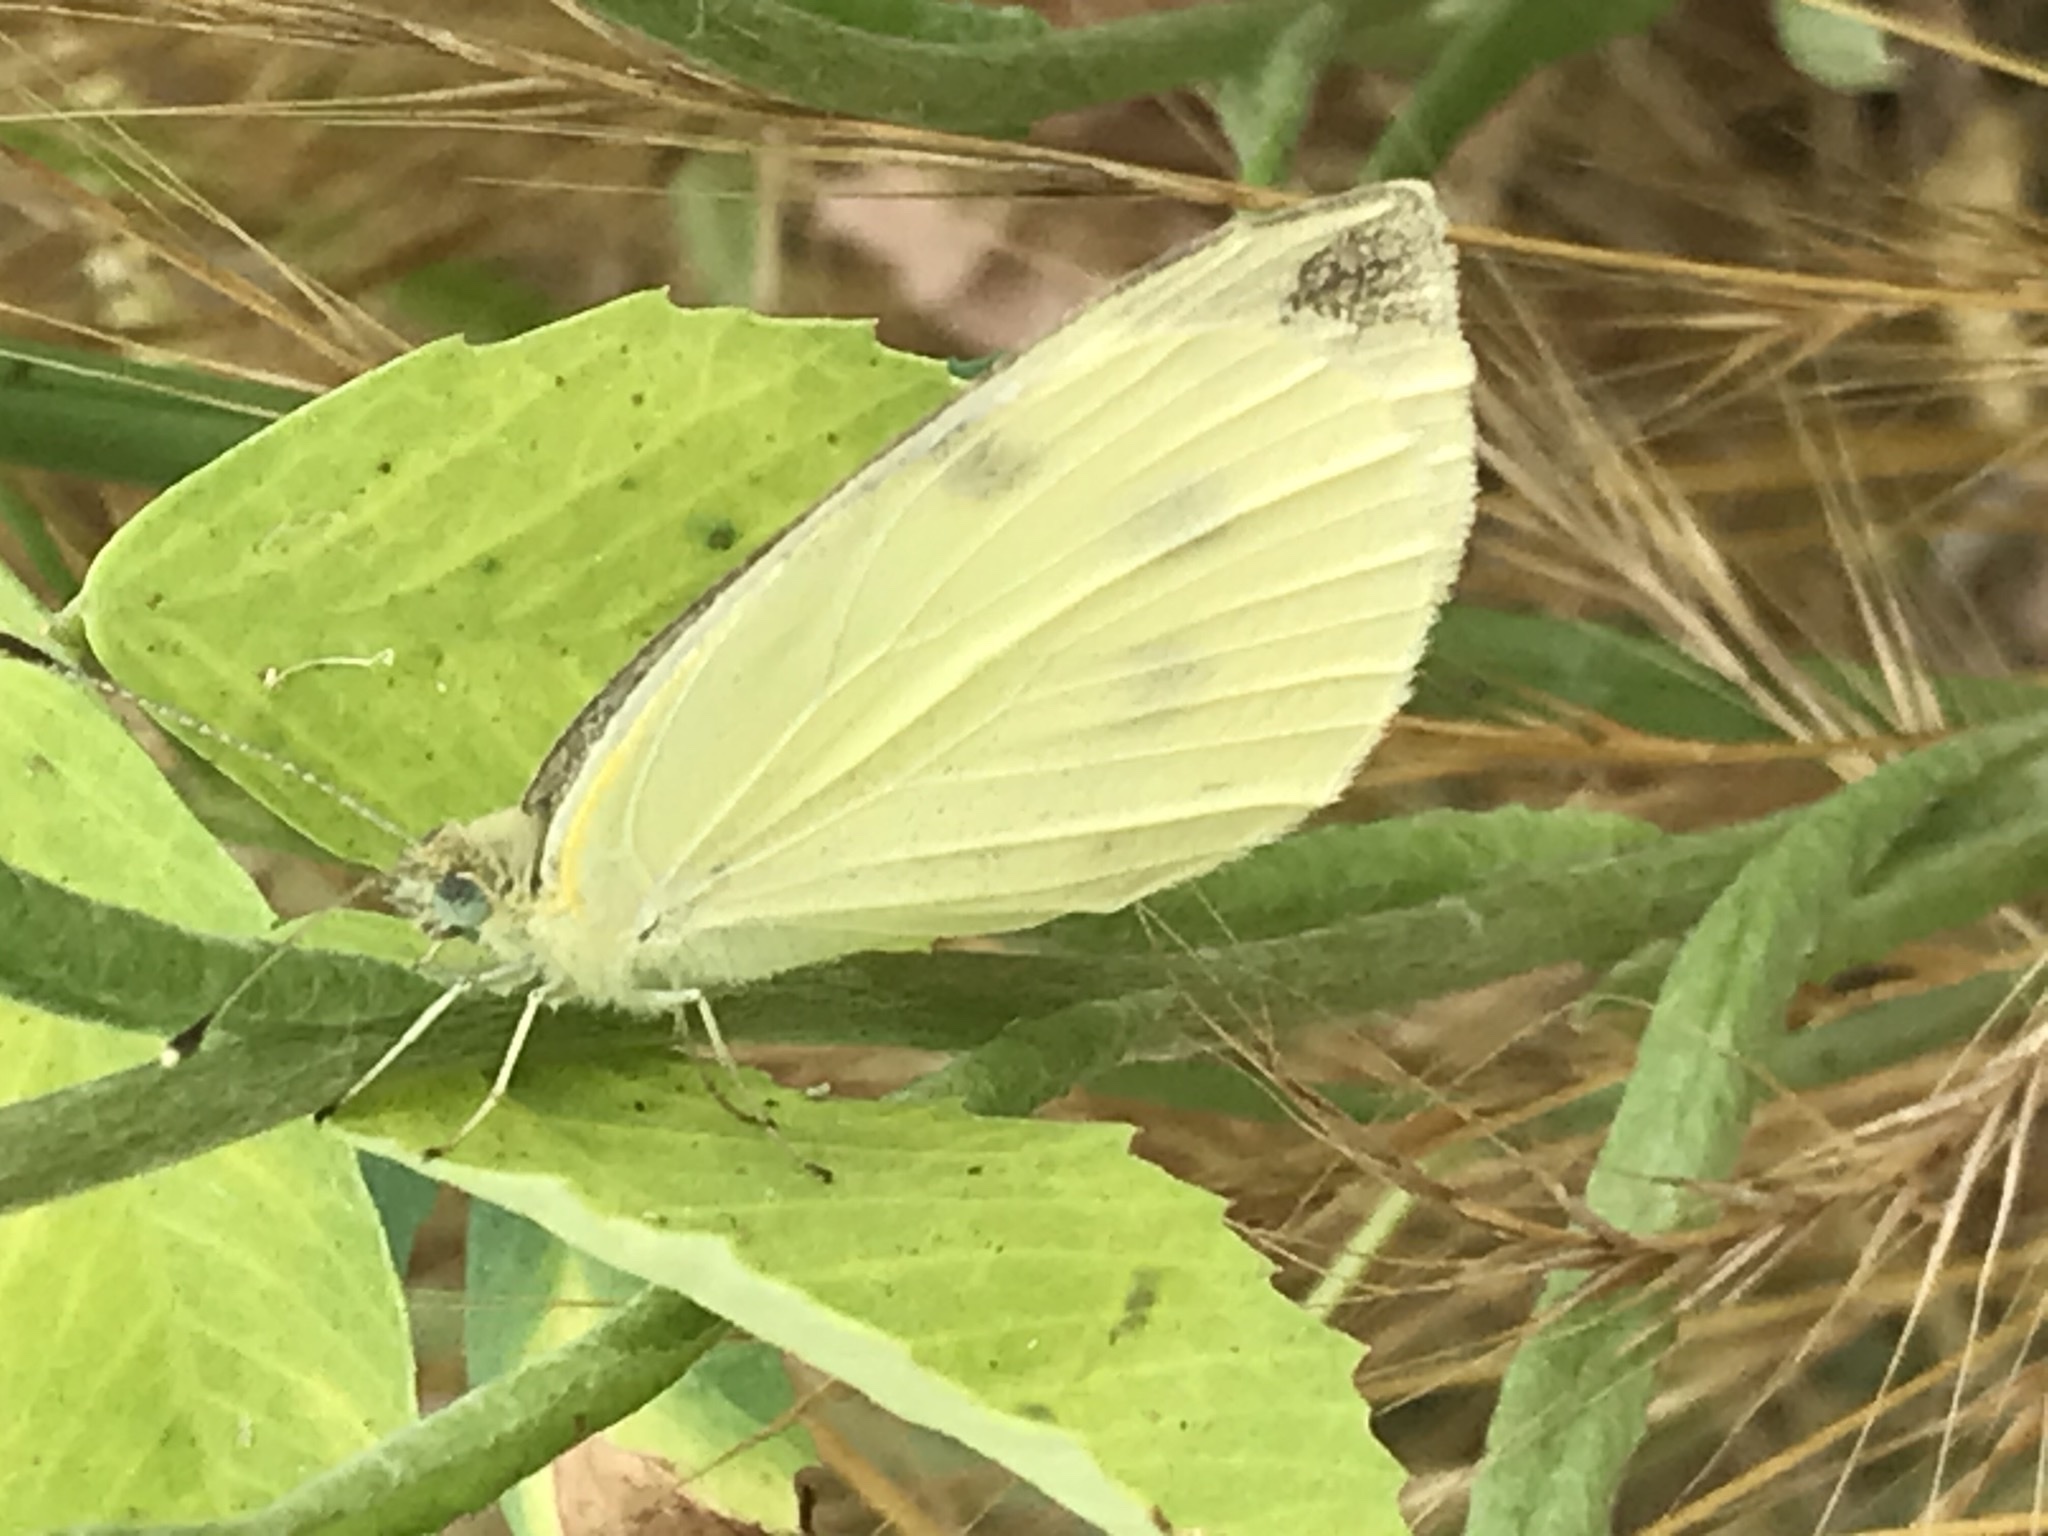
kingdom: Animalia
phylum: Arthropoda
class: Insecta
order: Lepidoptera
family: Pieridae
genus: Pieris
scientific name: Pieris rapae
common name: Small white
